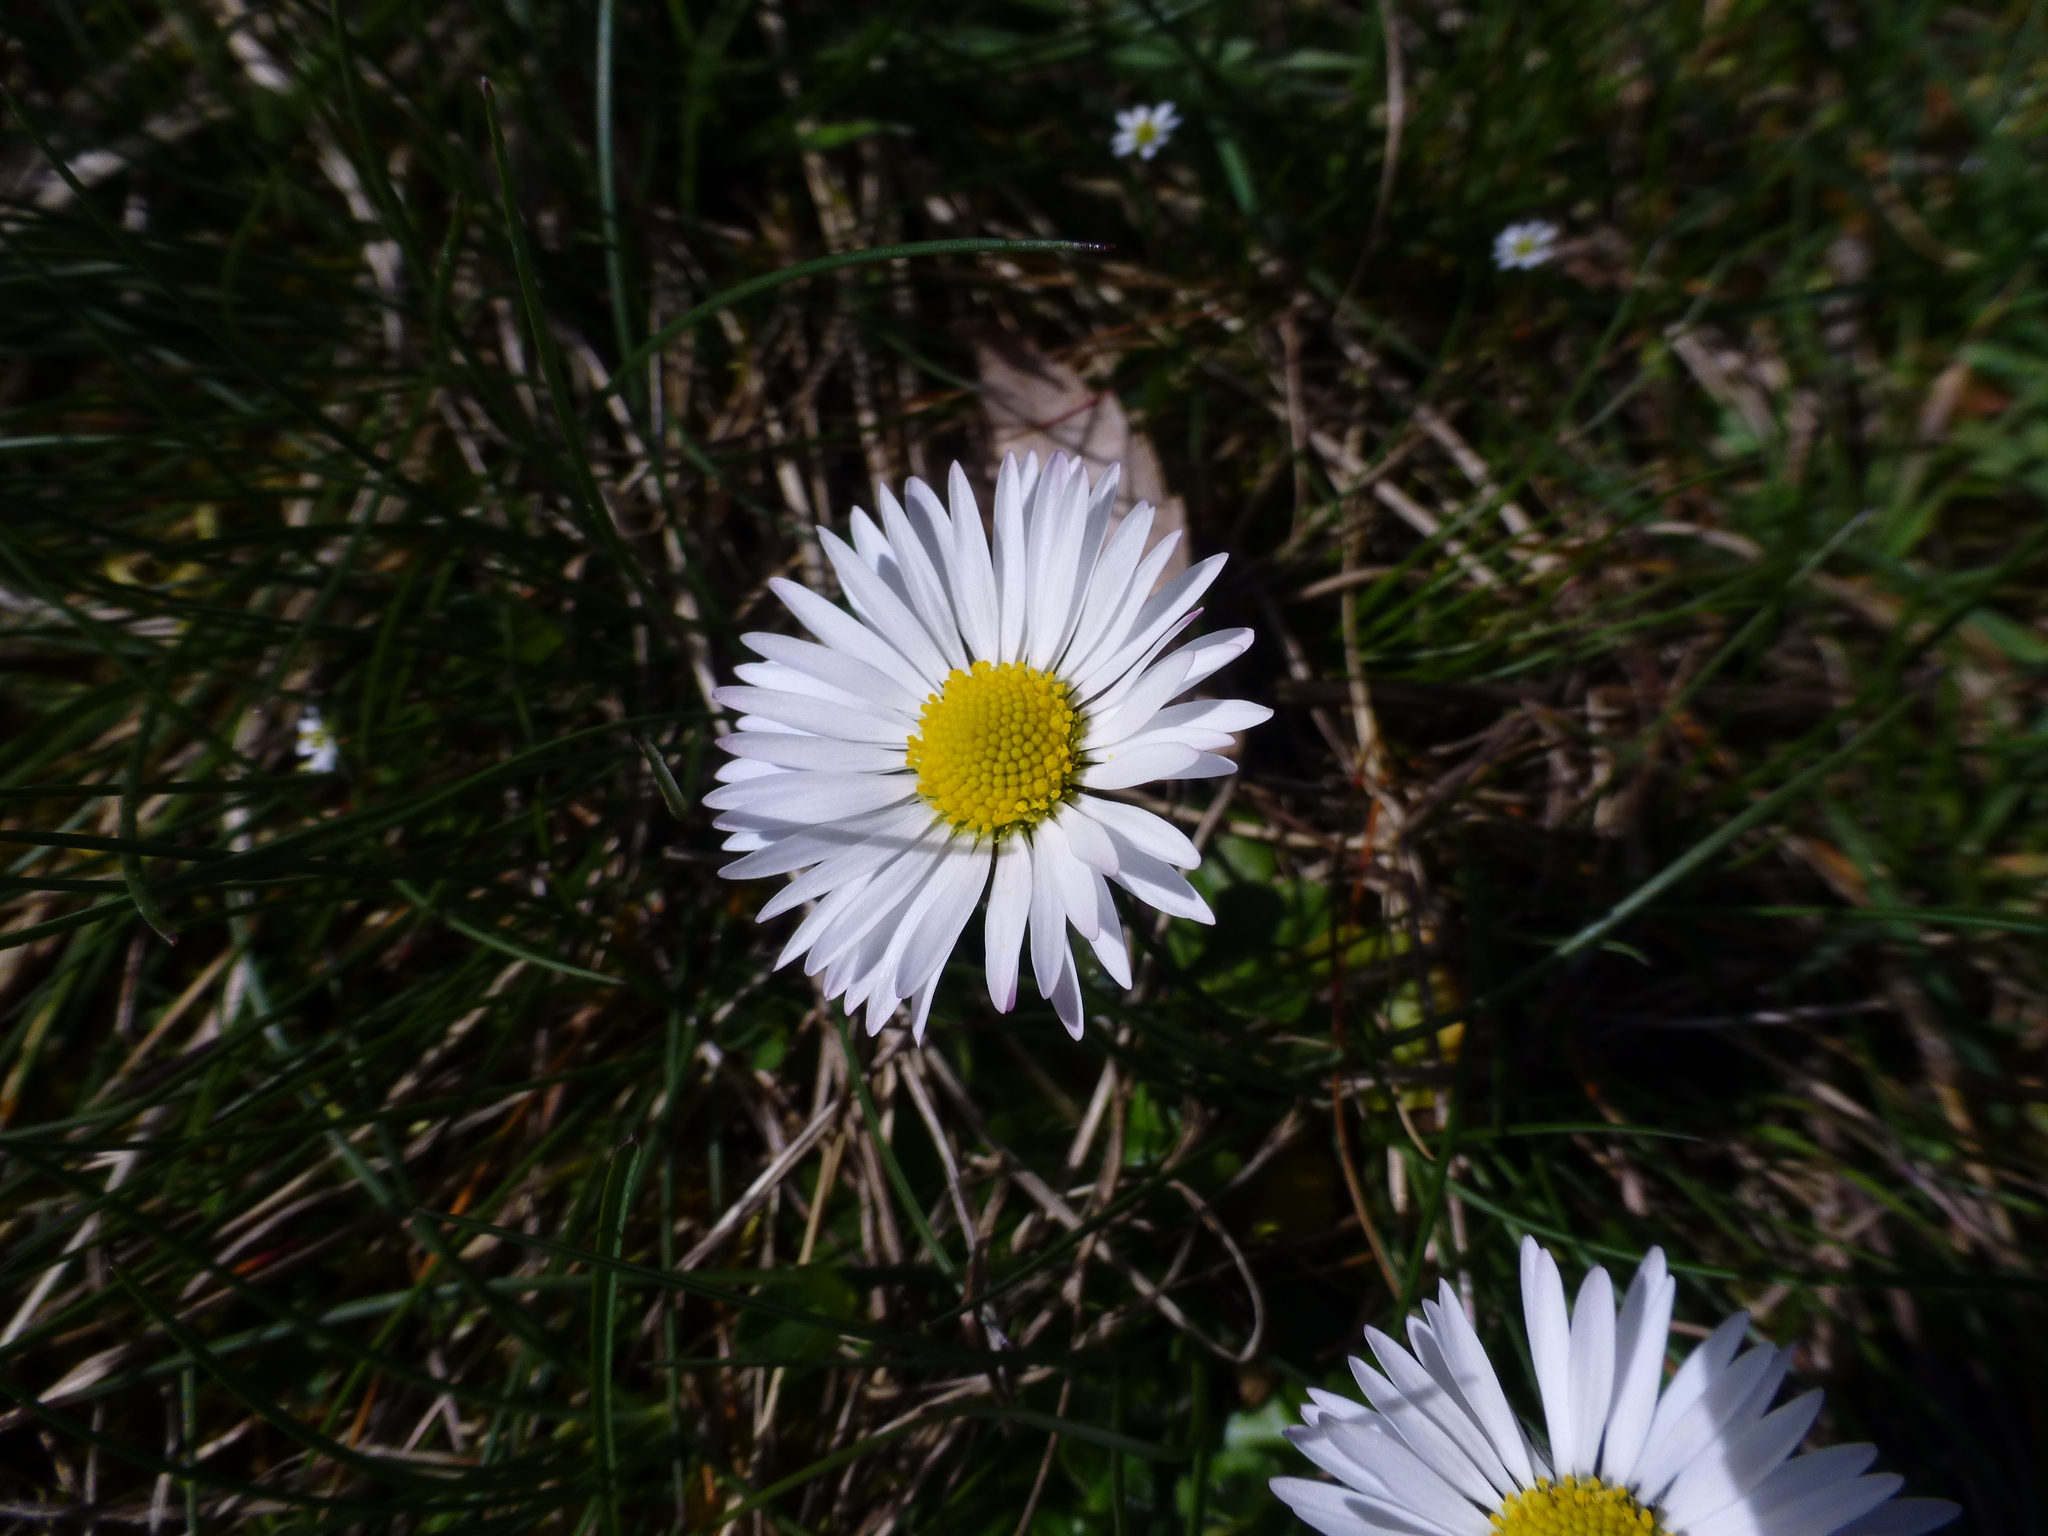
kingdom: Plantae
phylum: Tracheophyta
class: Magnoliopsida
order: Asterales
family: Asteraceae
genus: Bellis
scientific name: Bellis perennis
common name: Lawndaisy
